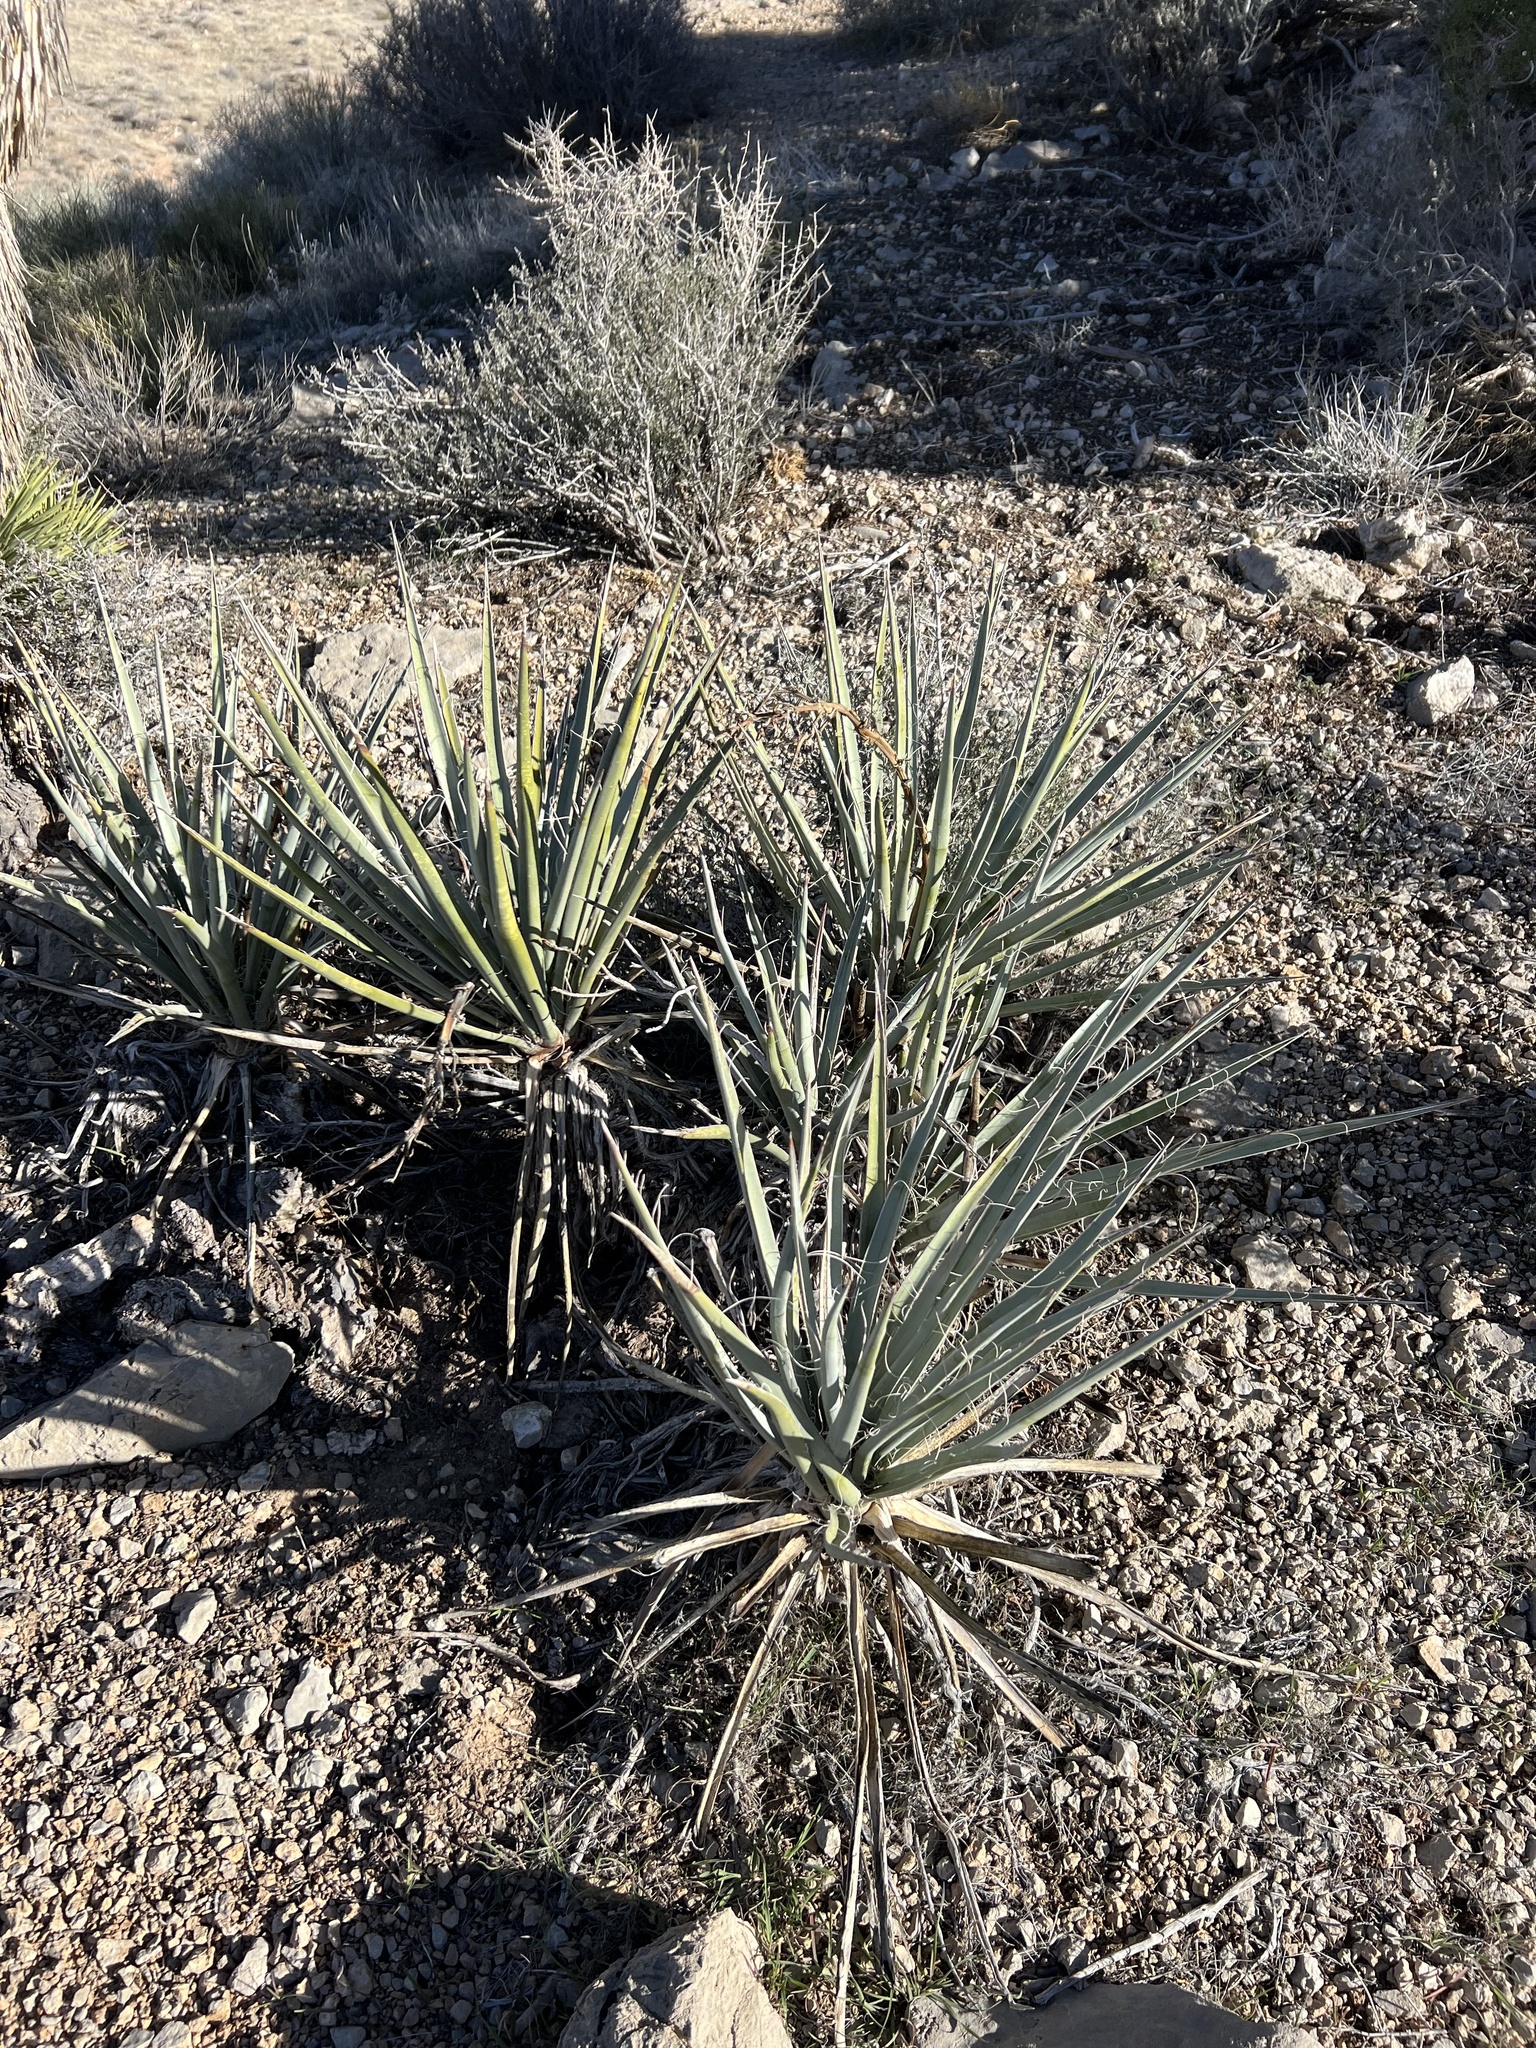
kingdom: Plantae
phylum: Tracheophyta
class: Liliopsida
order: Asparagales
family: Asparagaceae
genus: Yucca
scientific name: Yucca baccata
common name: Banana yucca
